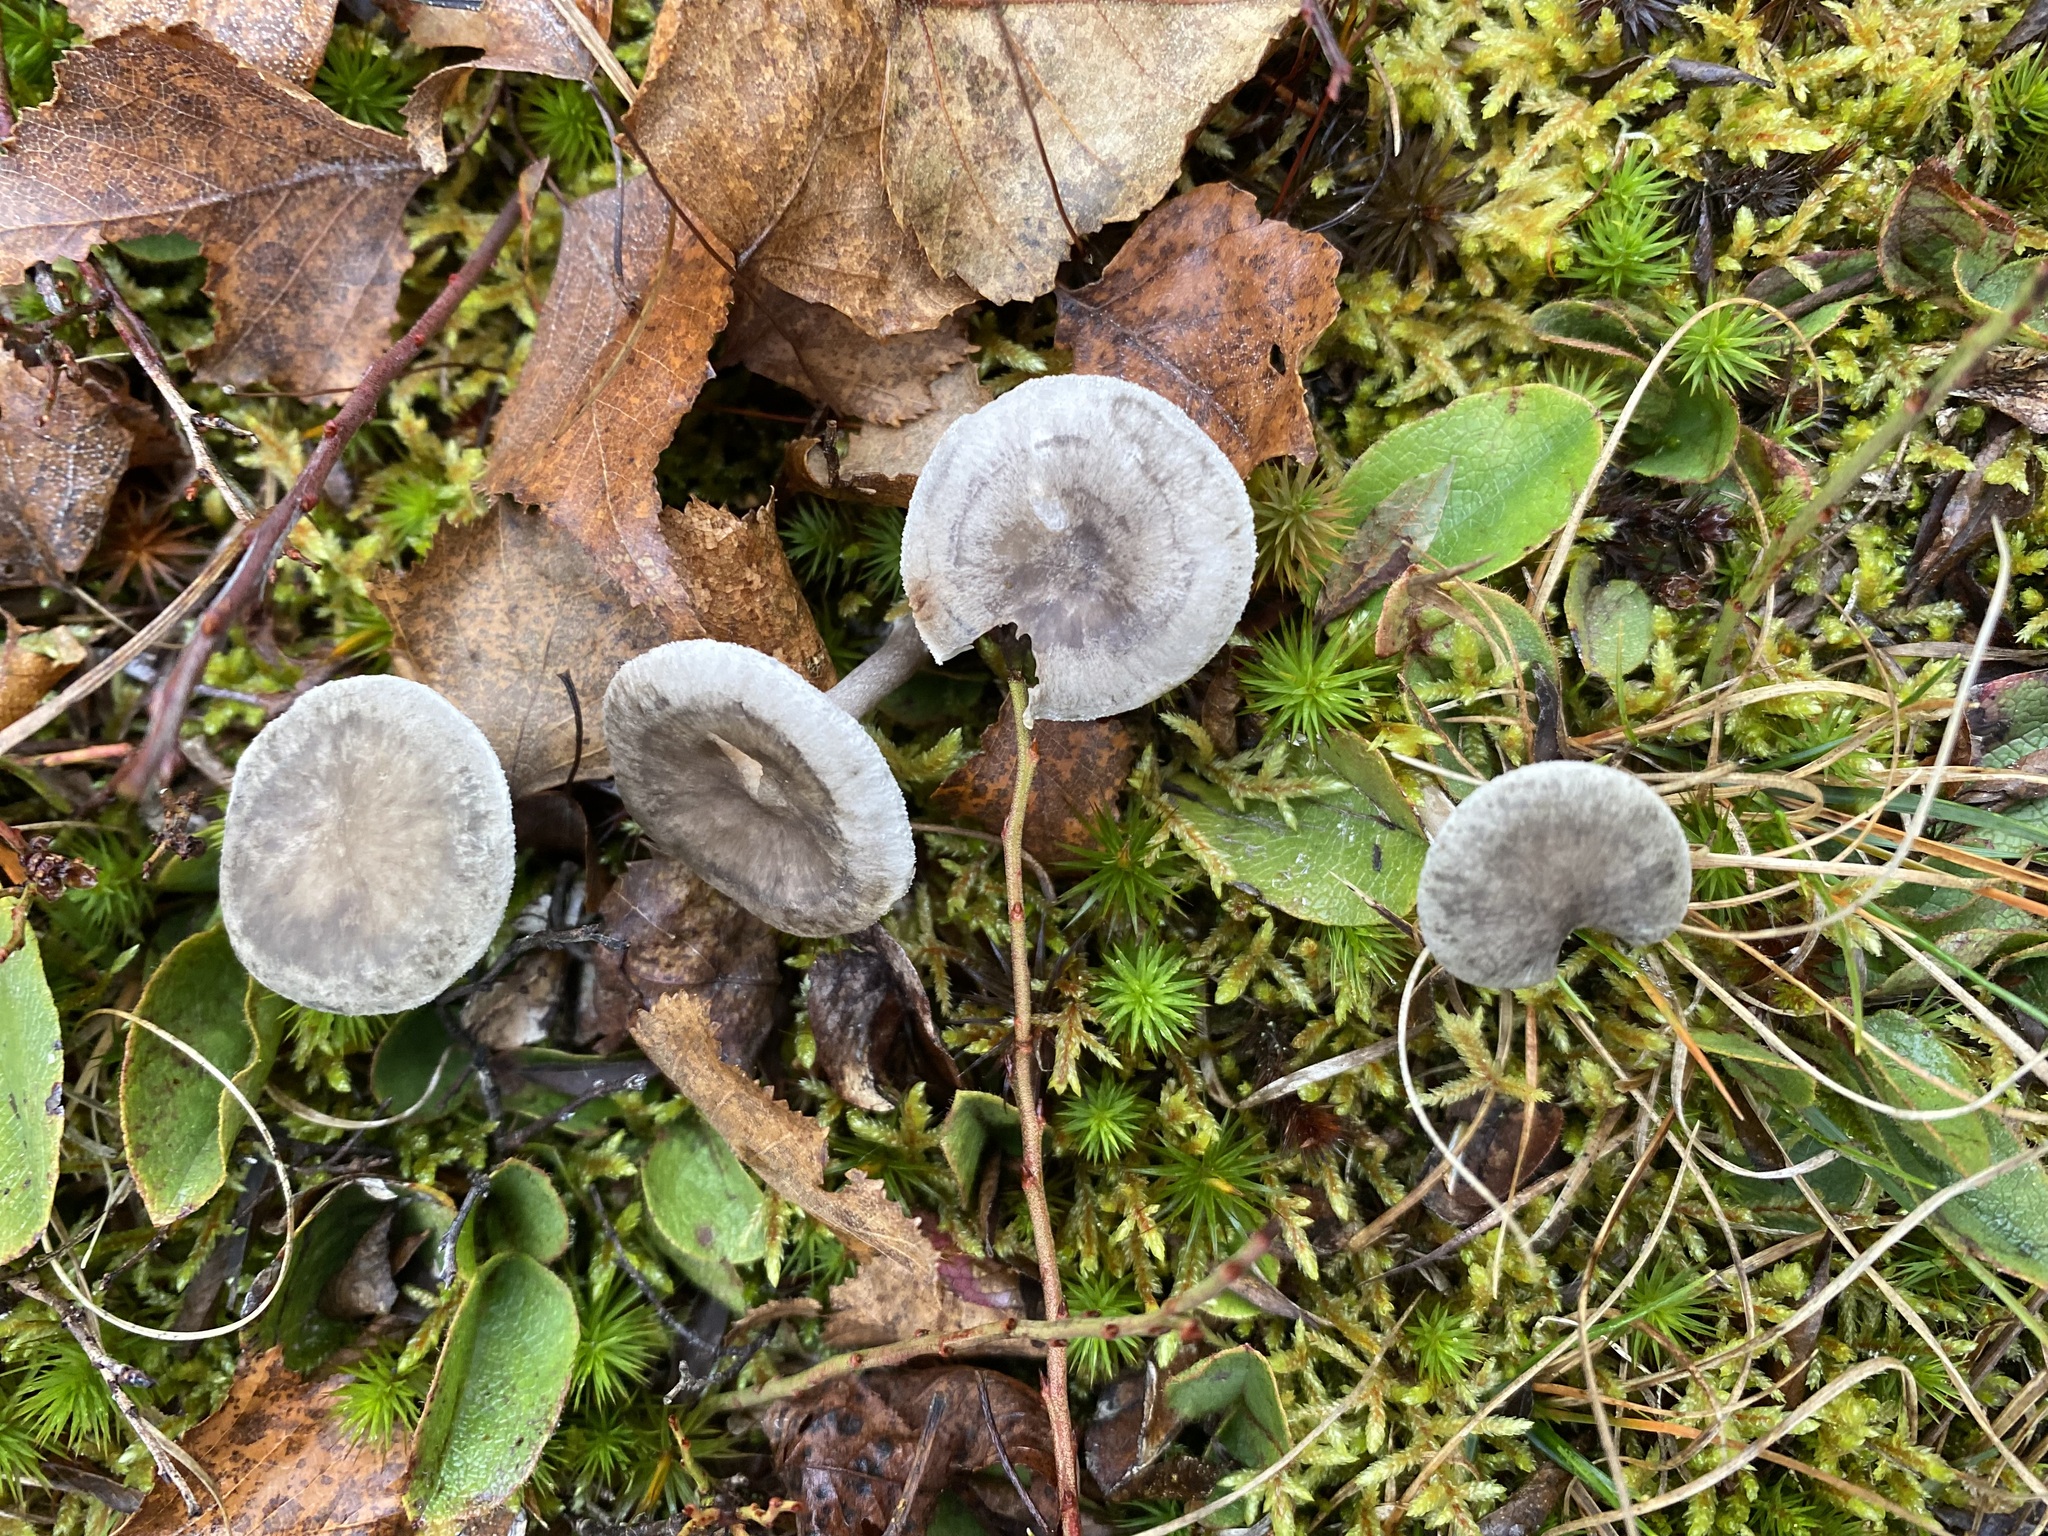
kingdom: Fungi
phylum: Basidiomycota
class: Agaricomycetes
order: Agaricales
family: Hygrophoraceae
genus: Cantharellula
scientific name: Cantharellula umbonata
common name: The humpback
